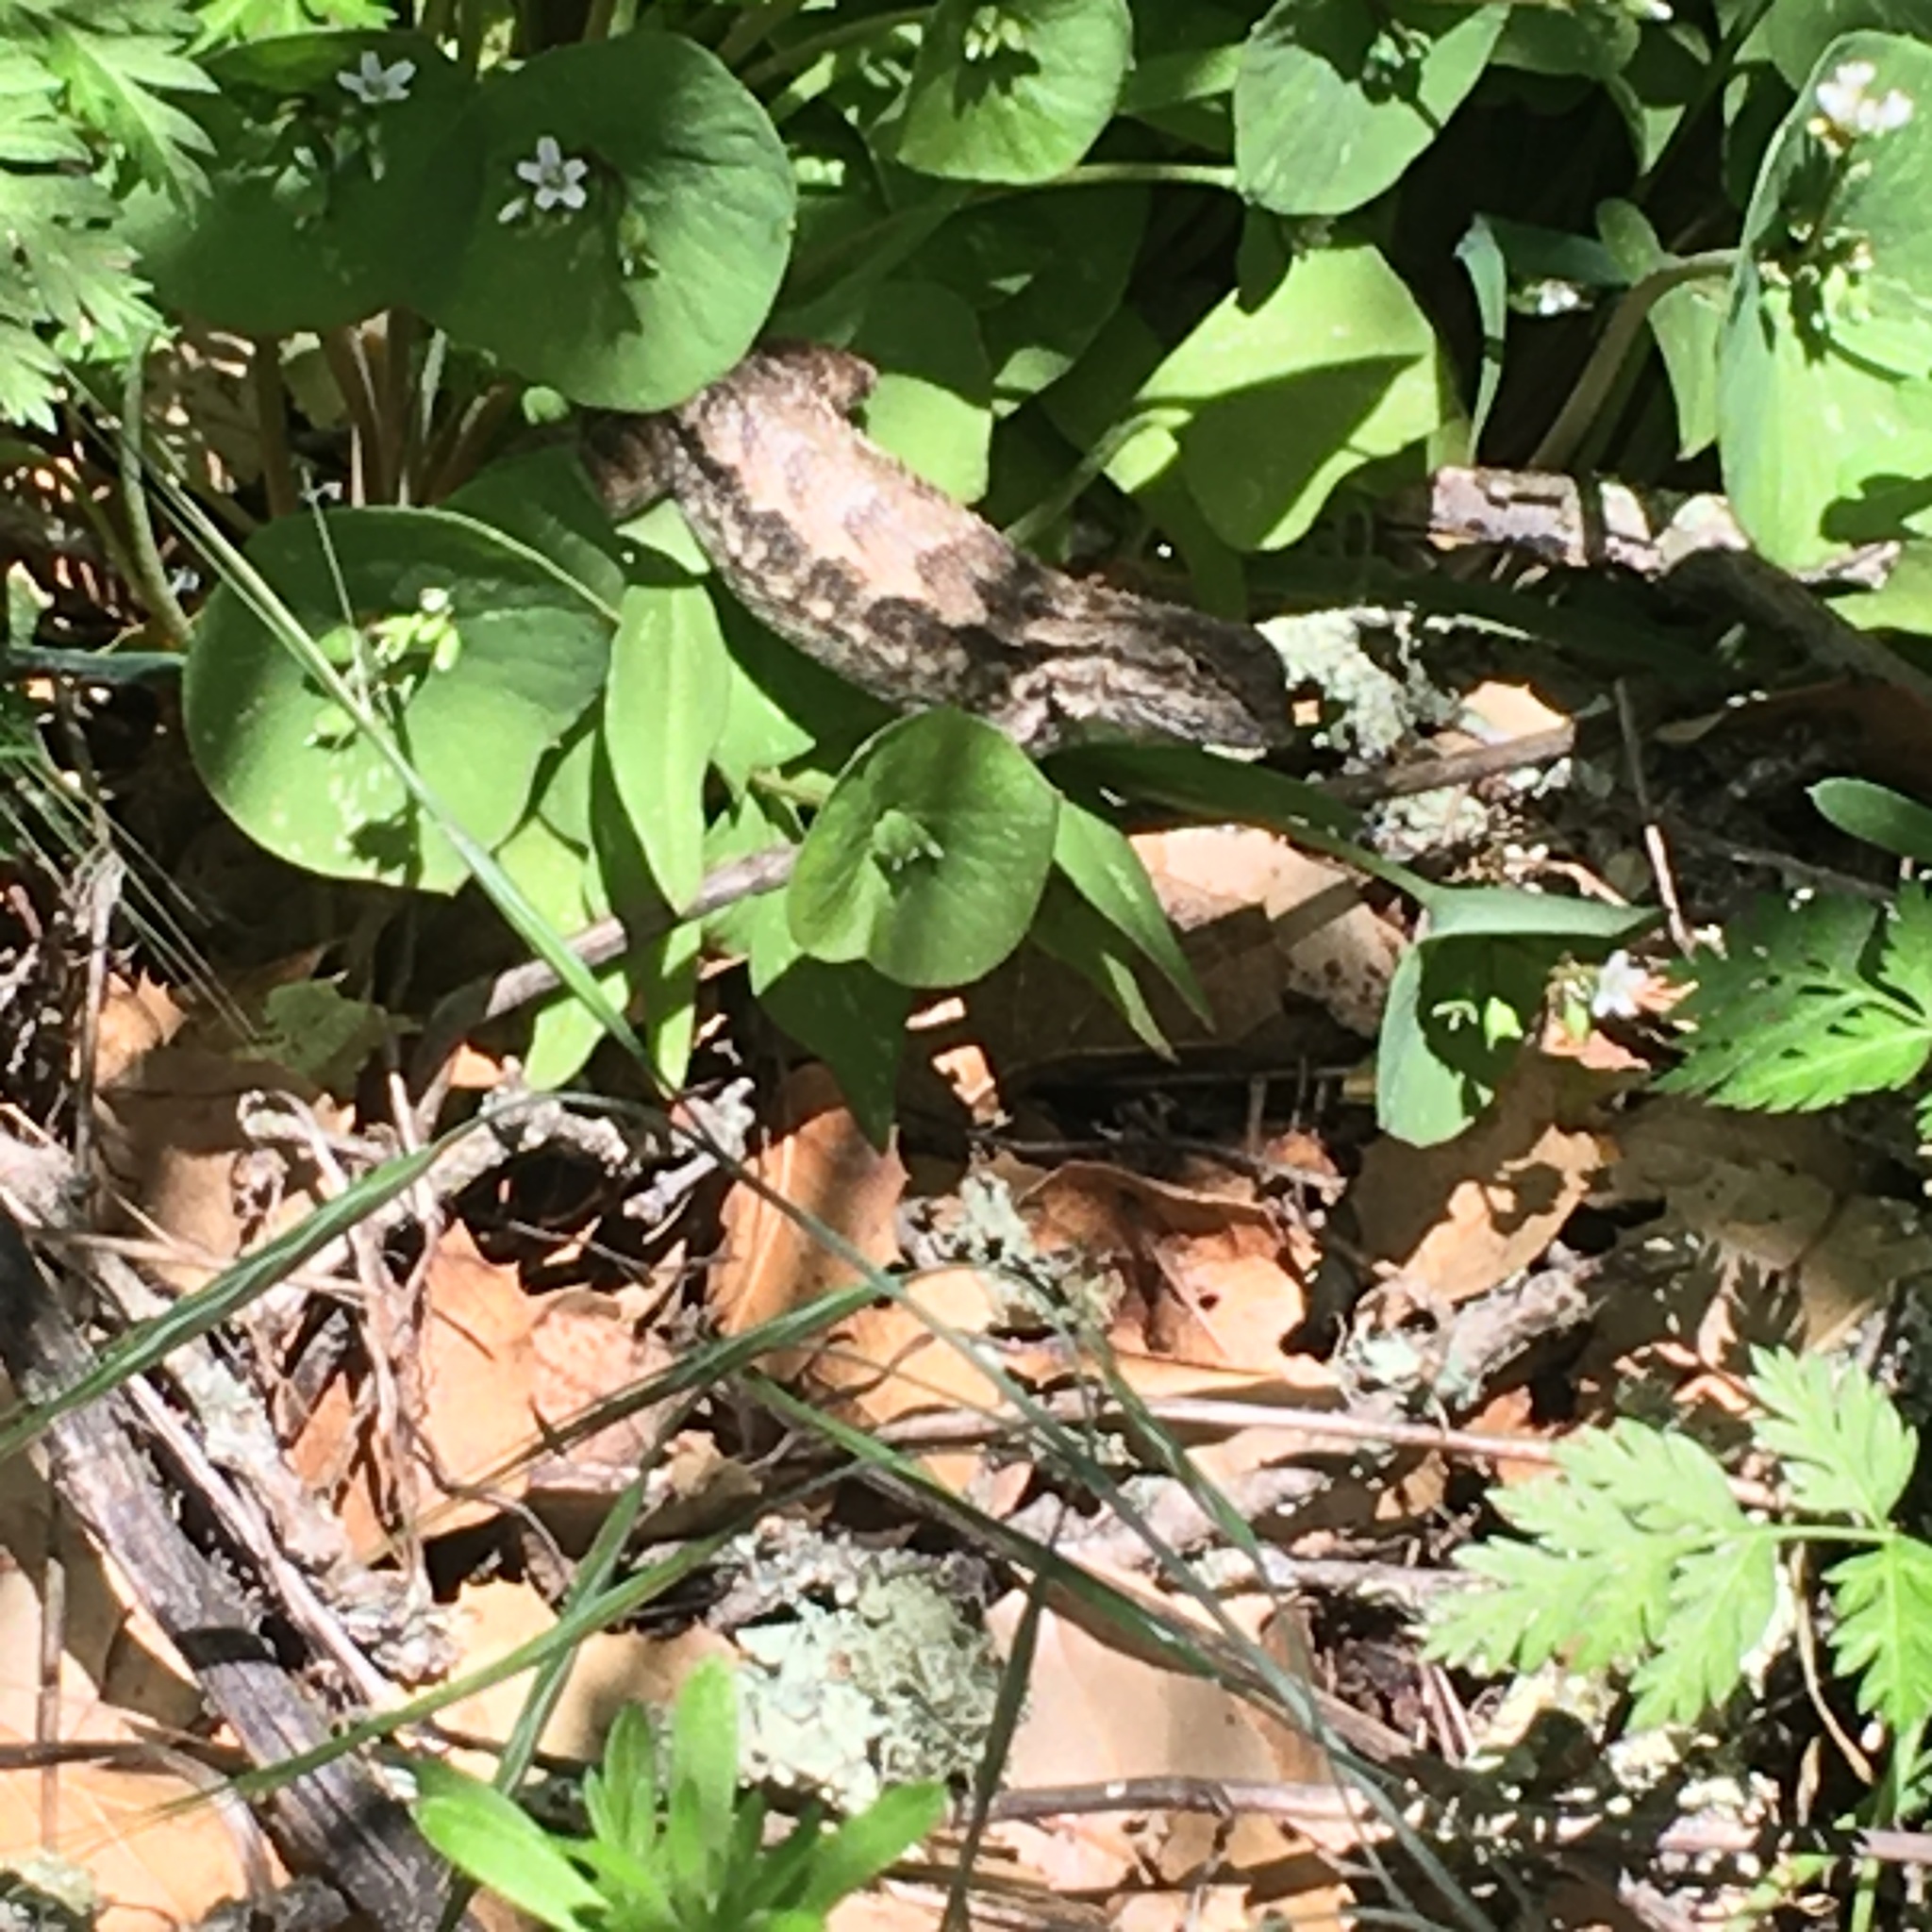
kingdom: Animalia
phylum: Chordata
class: Squamata
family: Phrynosomatidae
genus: Sceloporus
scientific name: Sceloporus occidentalis
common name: Western fence lizard
